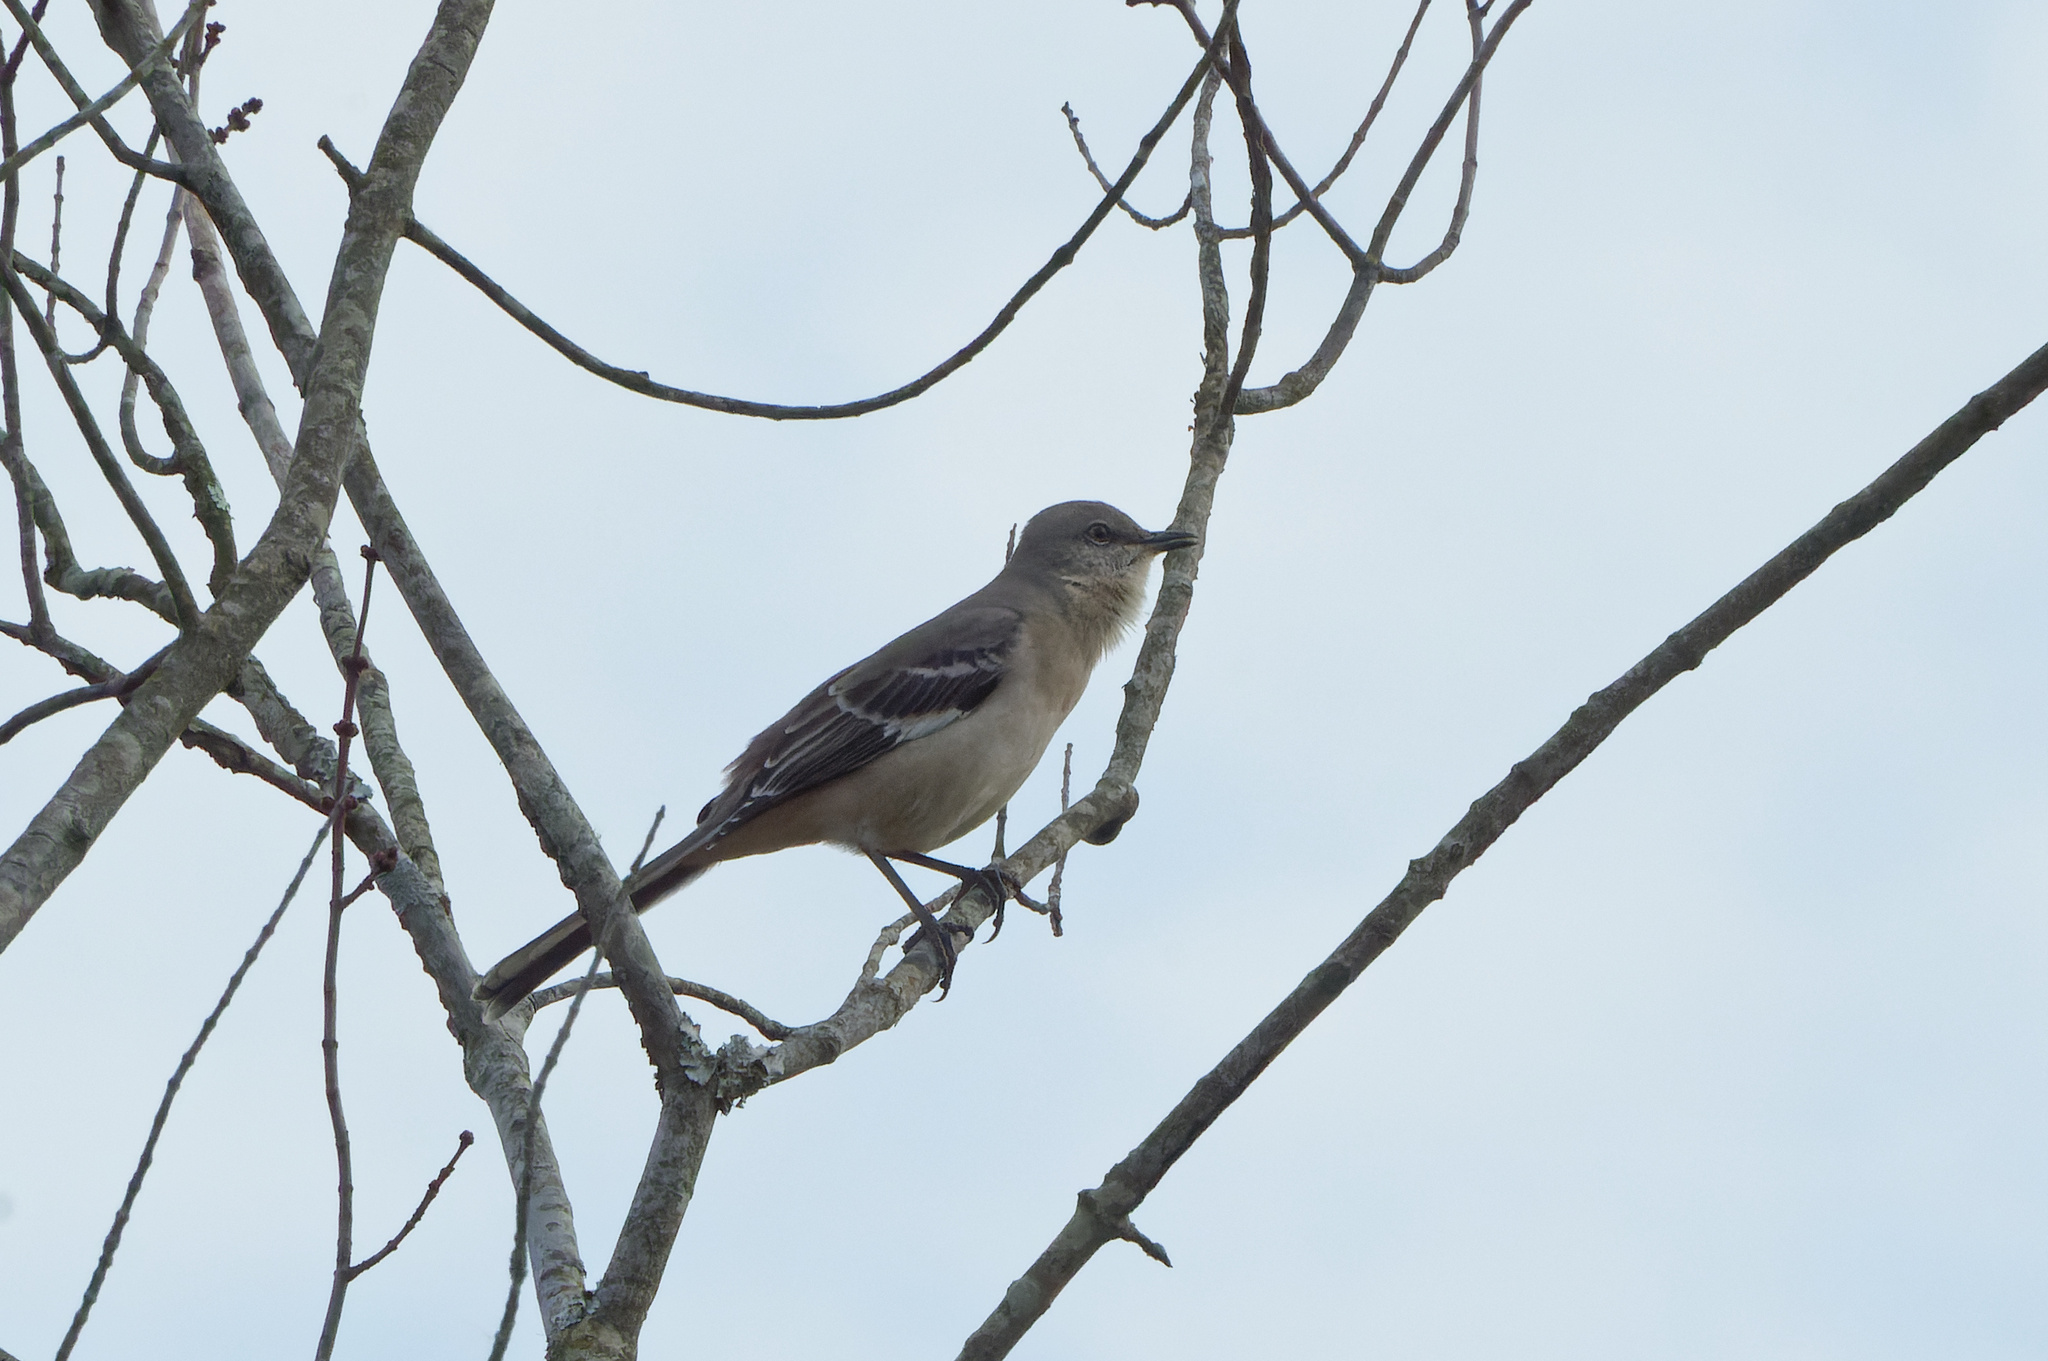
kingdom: Animalia
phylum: Chordata
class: Aves
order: Passeriformes
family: Mimidae
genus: Mimus
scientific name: Mimus polyglottos
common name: Northern mockingbird
